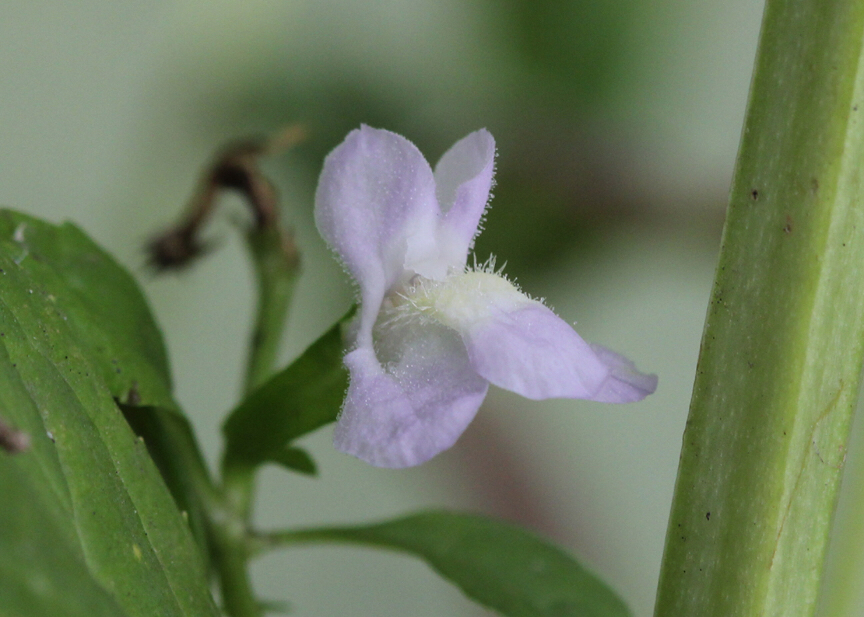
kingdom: Plantae
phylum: Tracheophyta
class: Magnoliopsida
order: Lamiales
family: Phrymaceae
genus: Mimulus
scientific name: Mimulus alatus
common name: Sharp-wing monkey-flower
